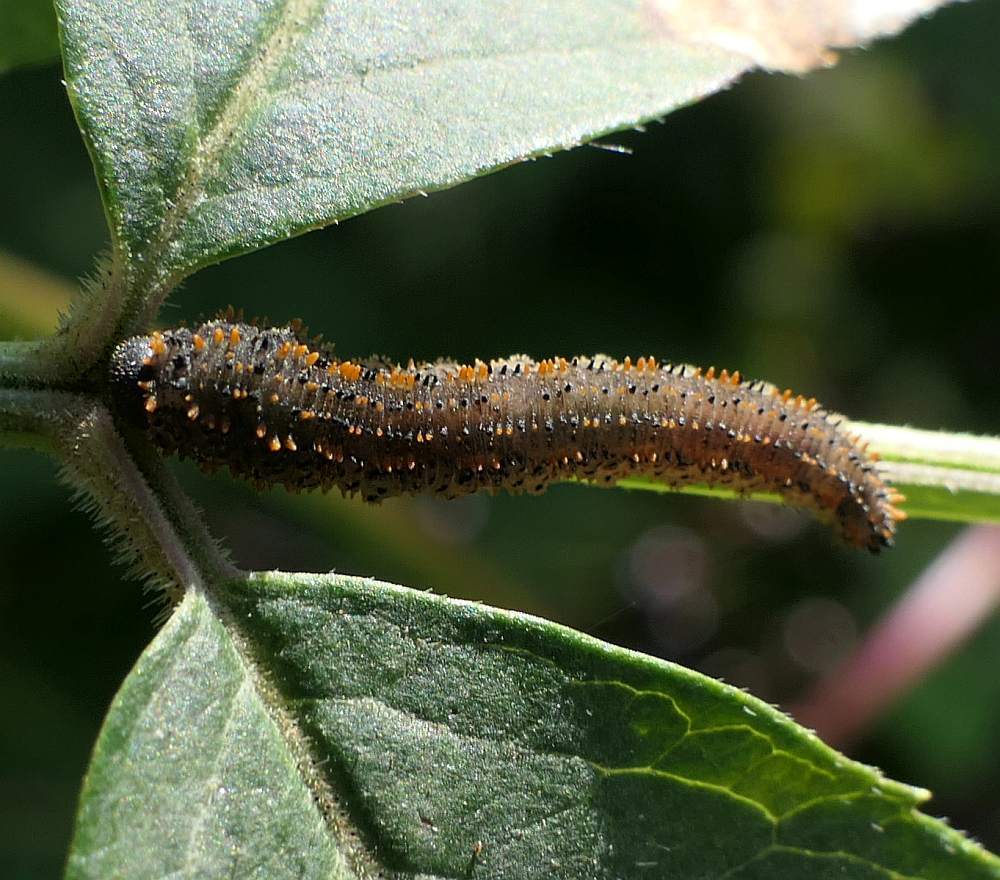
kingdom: Animalia
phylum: Arthropoda
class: Insecta
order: Hymenoptera
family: Tenthredinidae
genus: Lagium
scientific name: Lagium atroviolaceum
